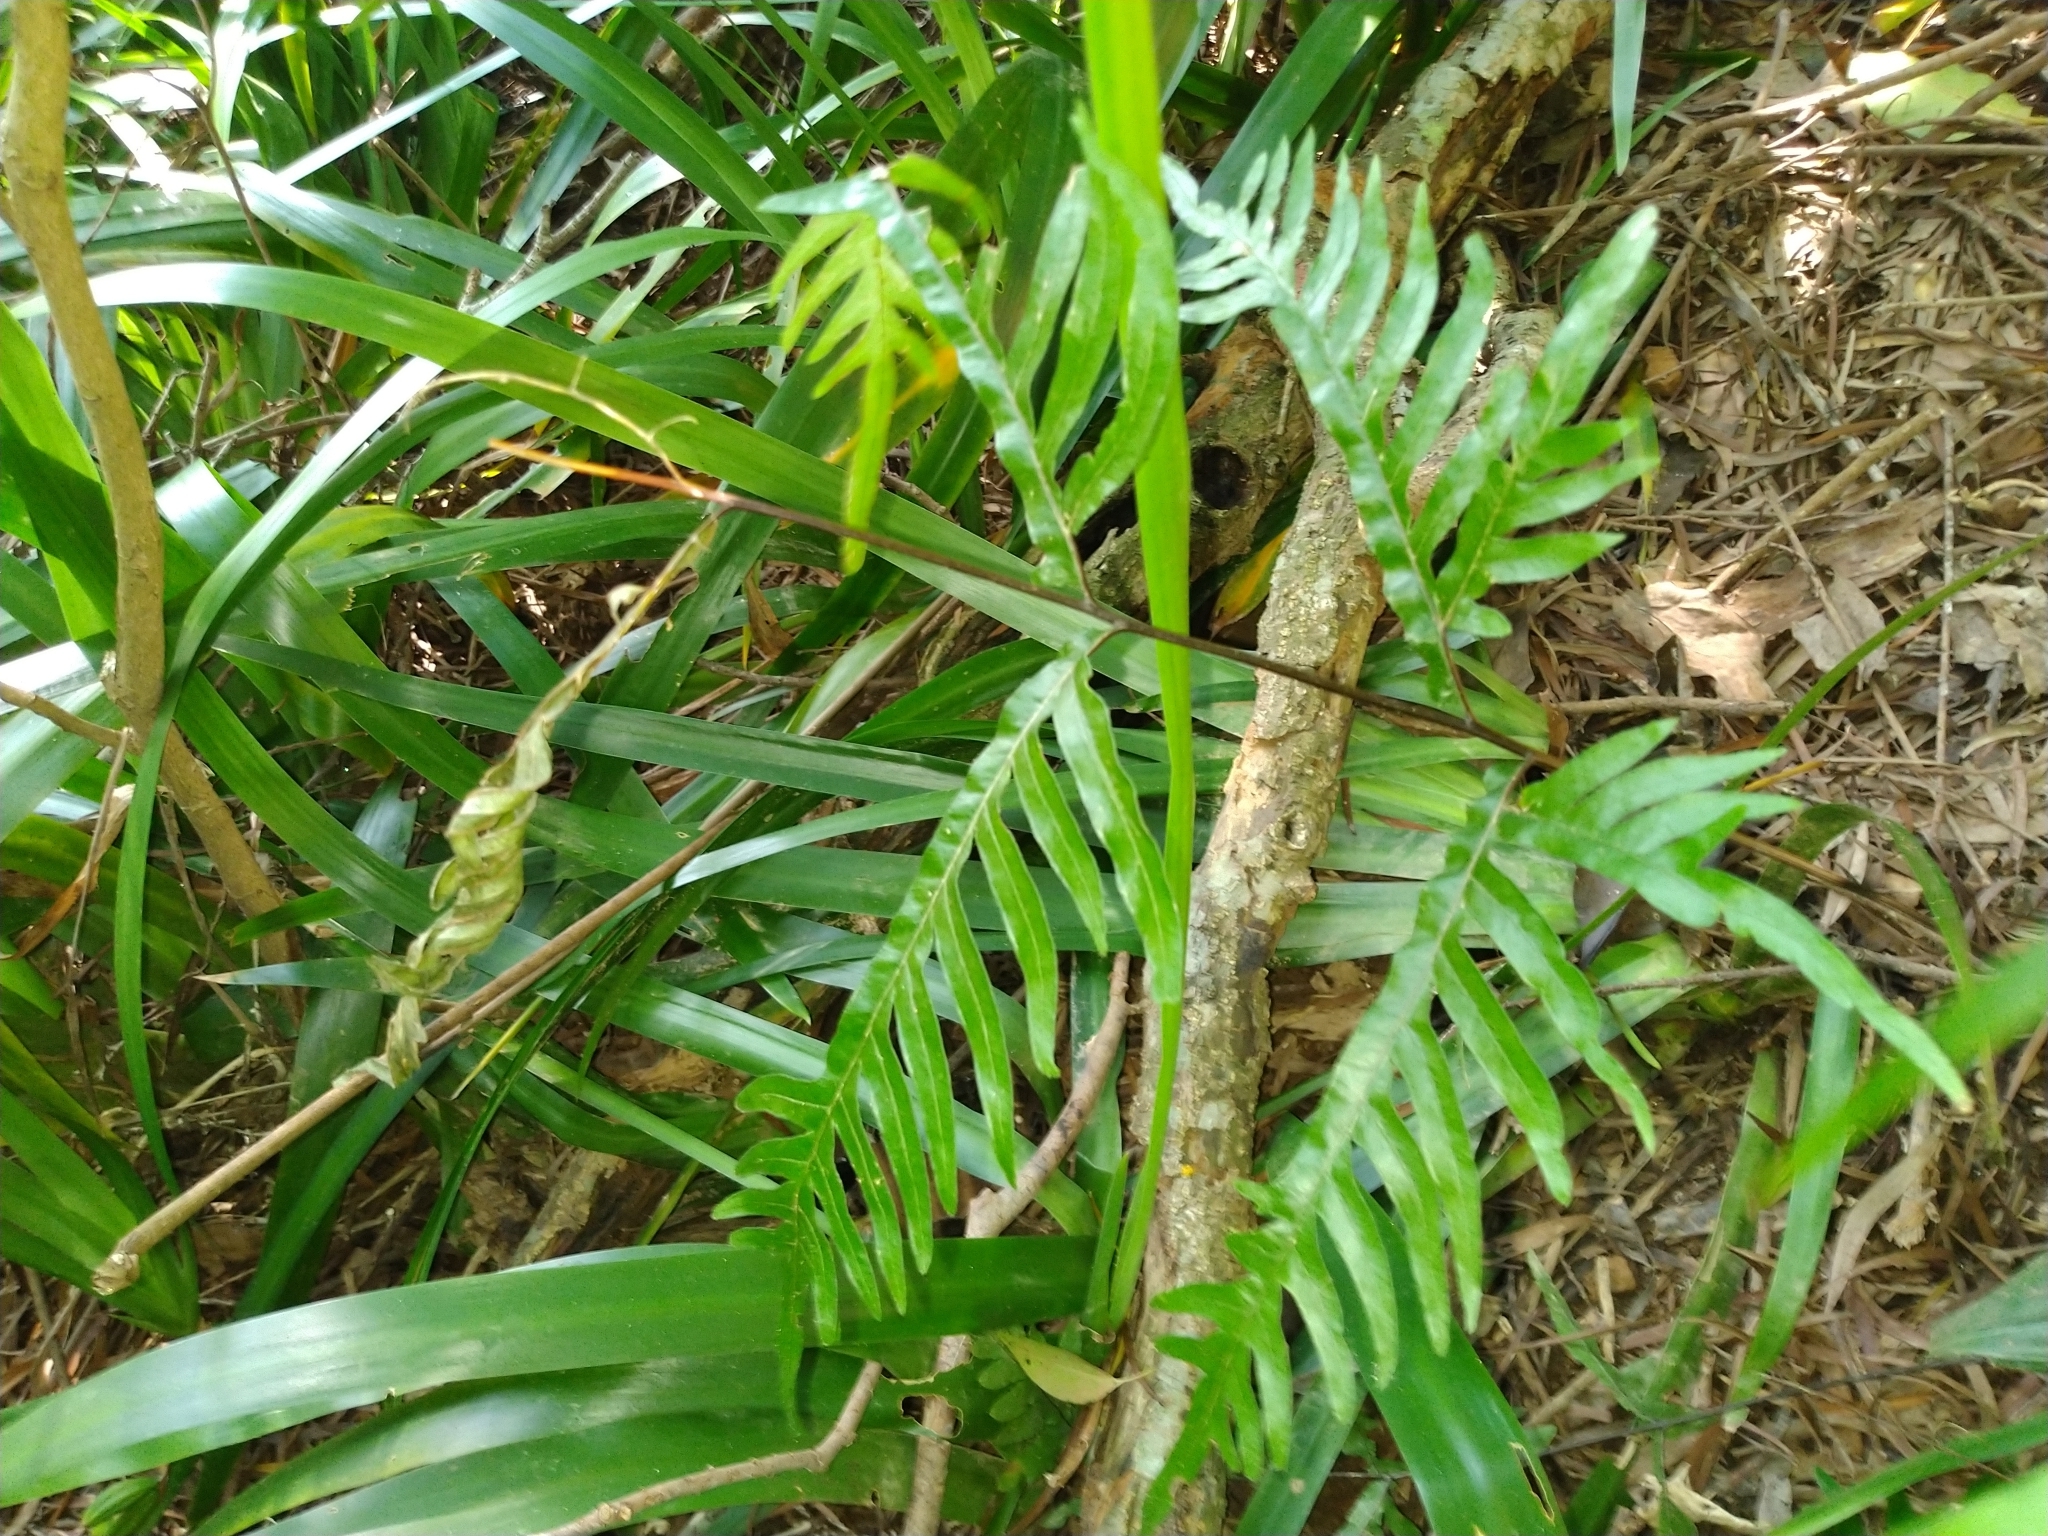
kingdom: Plantae
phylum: Tracheophyta
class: Polypodiopsida
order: Polypodiales
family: Pteridaceae
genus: Pteris
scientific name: Pteris semipinnata
